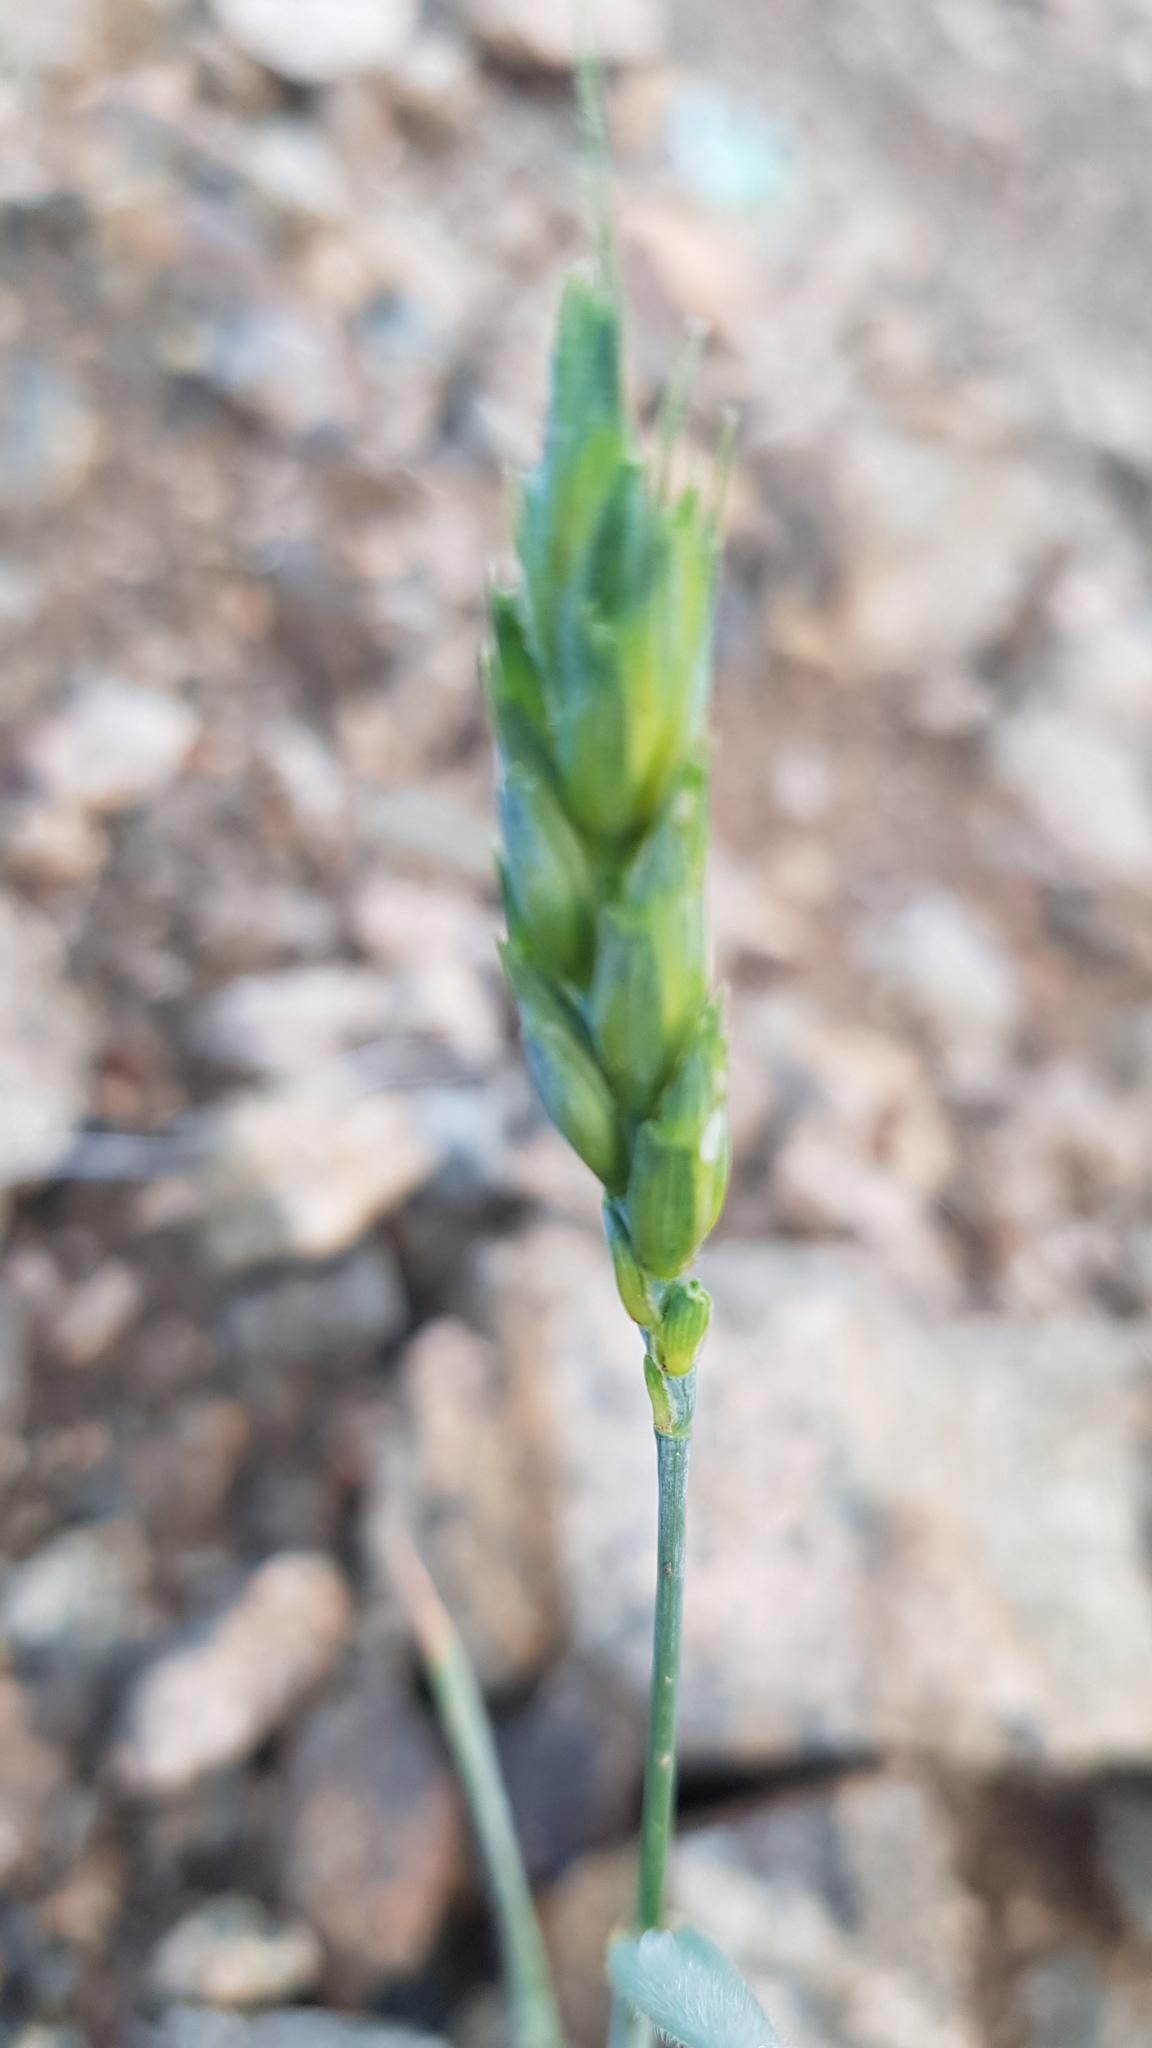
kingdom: Plantae
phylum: Tracheophyta
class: Liliopsida
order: Poales
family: Poaceae
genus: Triticum
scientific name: Triticum aestivum
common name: Common wheat
